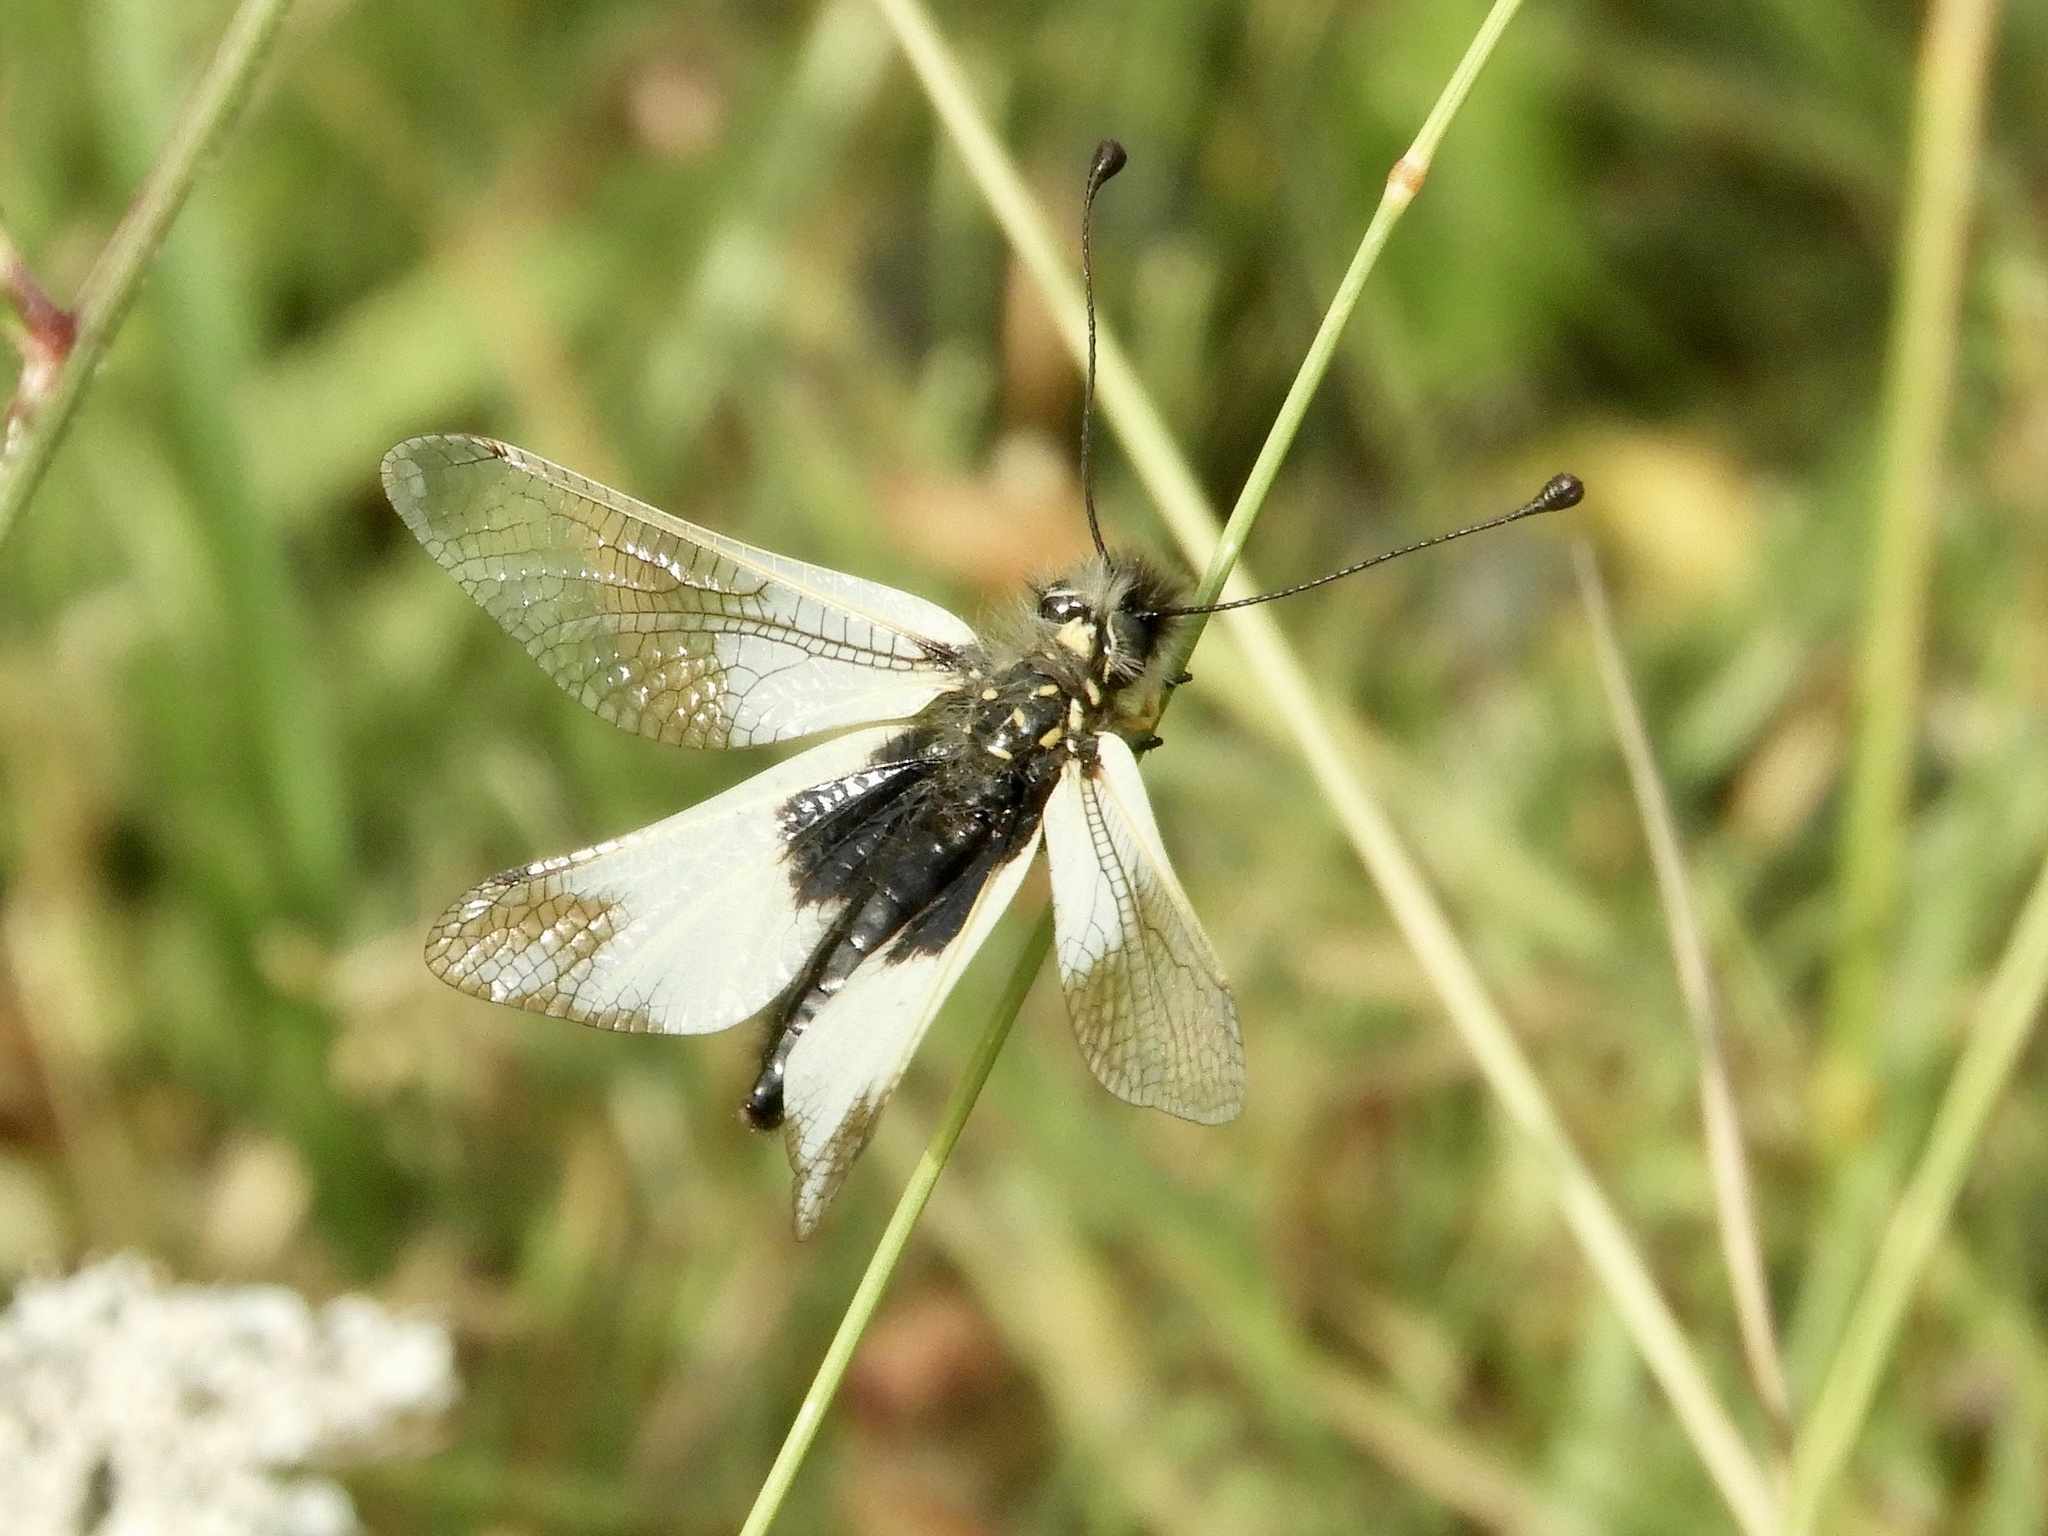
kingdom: Animalia
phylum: Arthropoda
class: Insecta
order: Neuroptera
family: Ascalaphidae
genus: Libelloides
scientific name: Libelloides lacteus
